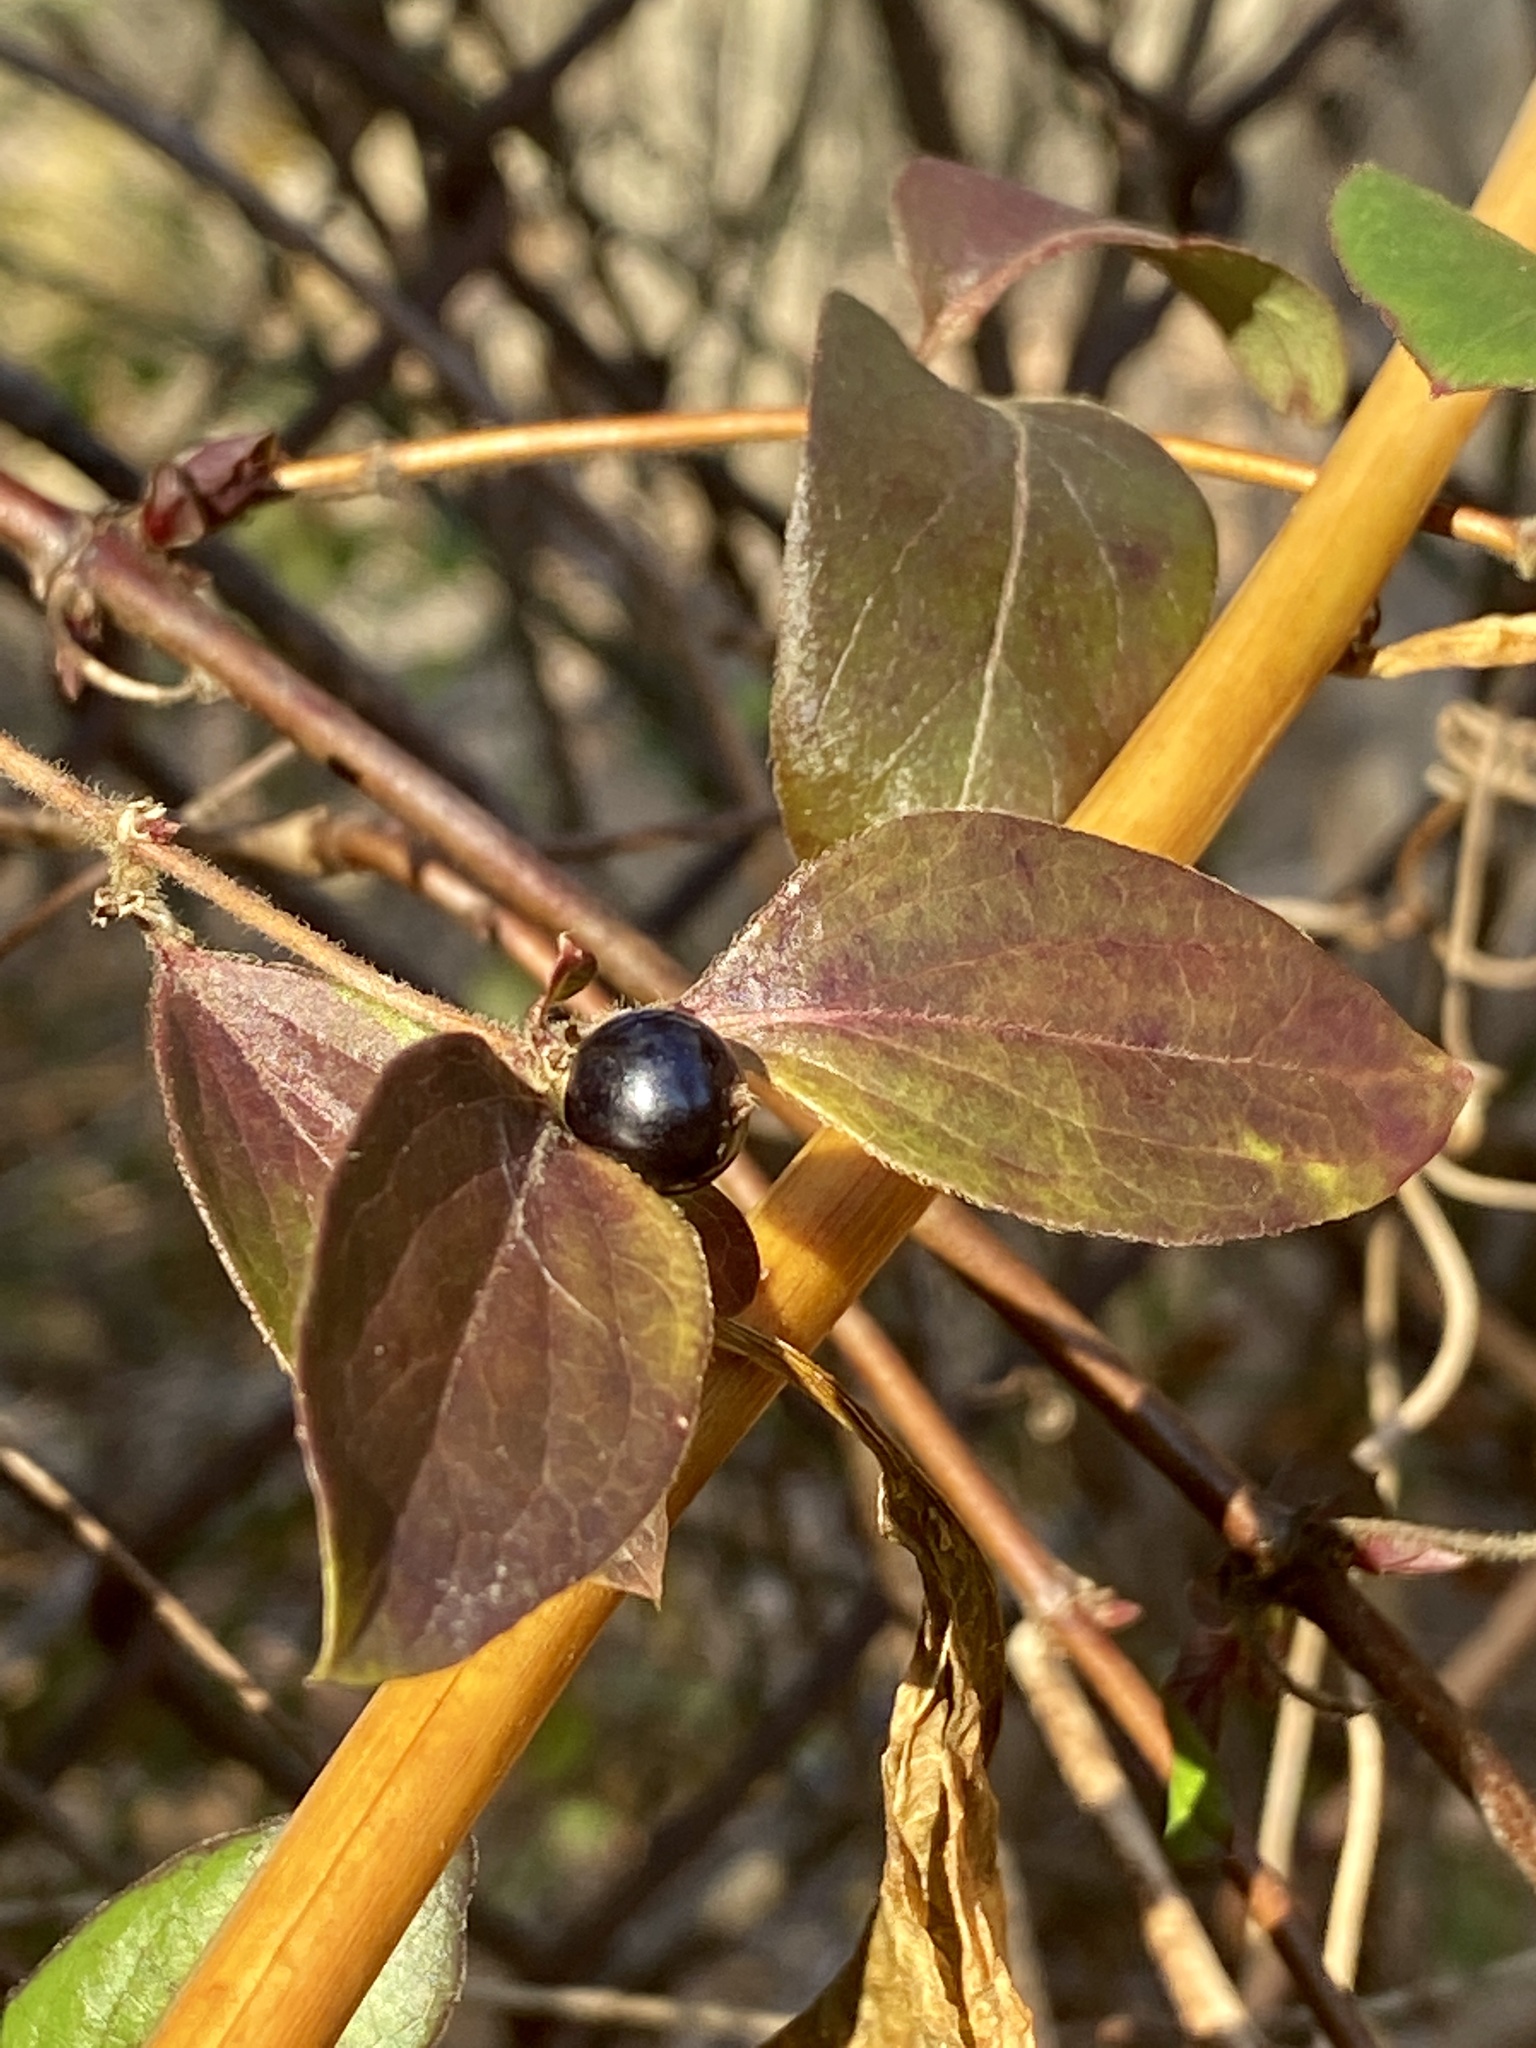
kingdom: Plantae
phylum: Tracheophyta
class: Magnoliopsida
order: Dipsacales
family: Caprifoliaceae
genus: Lonicera
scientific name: Lonicera japonica
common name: Japanese honeysuckle
